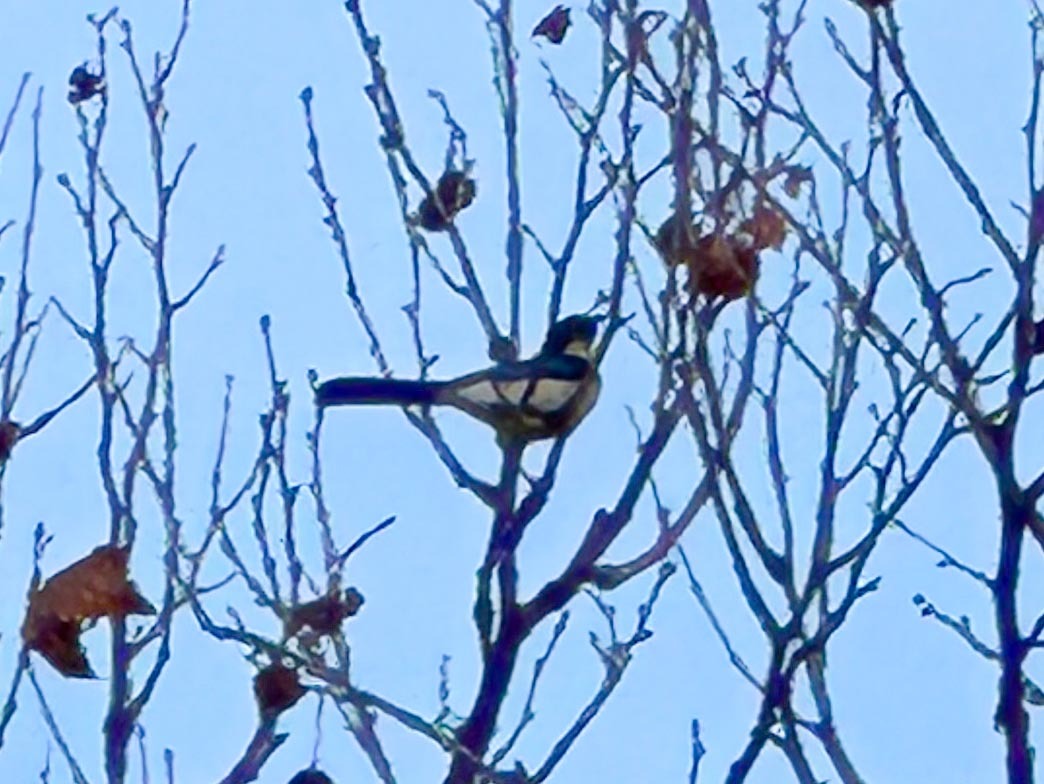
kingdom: Animalia
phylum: Chordata
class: Aves
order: Passeriformes
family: Corvidae
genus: Aphelocoma
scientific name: Aphelocoma californica
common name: California scrub-jay
